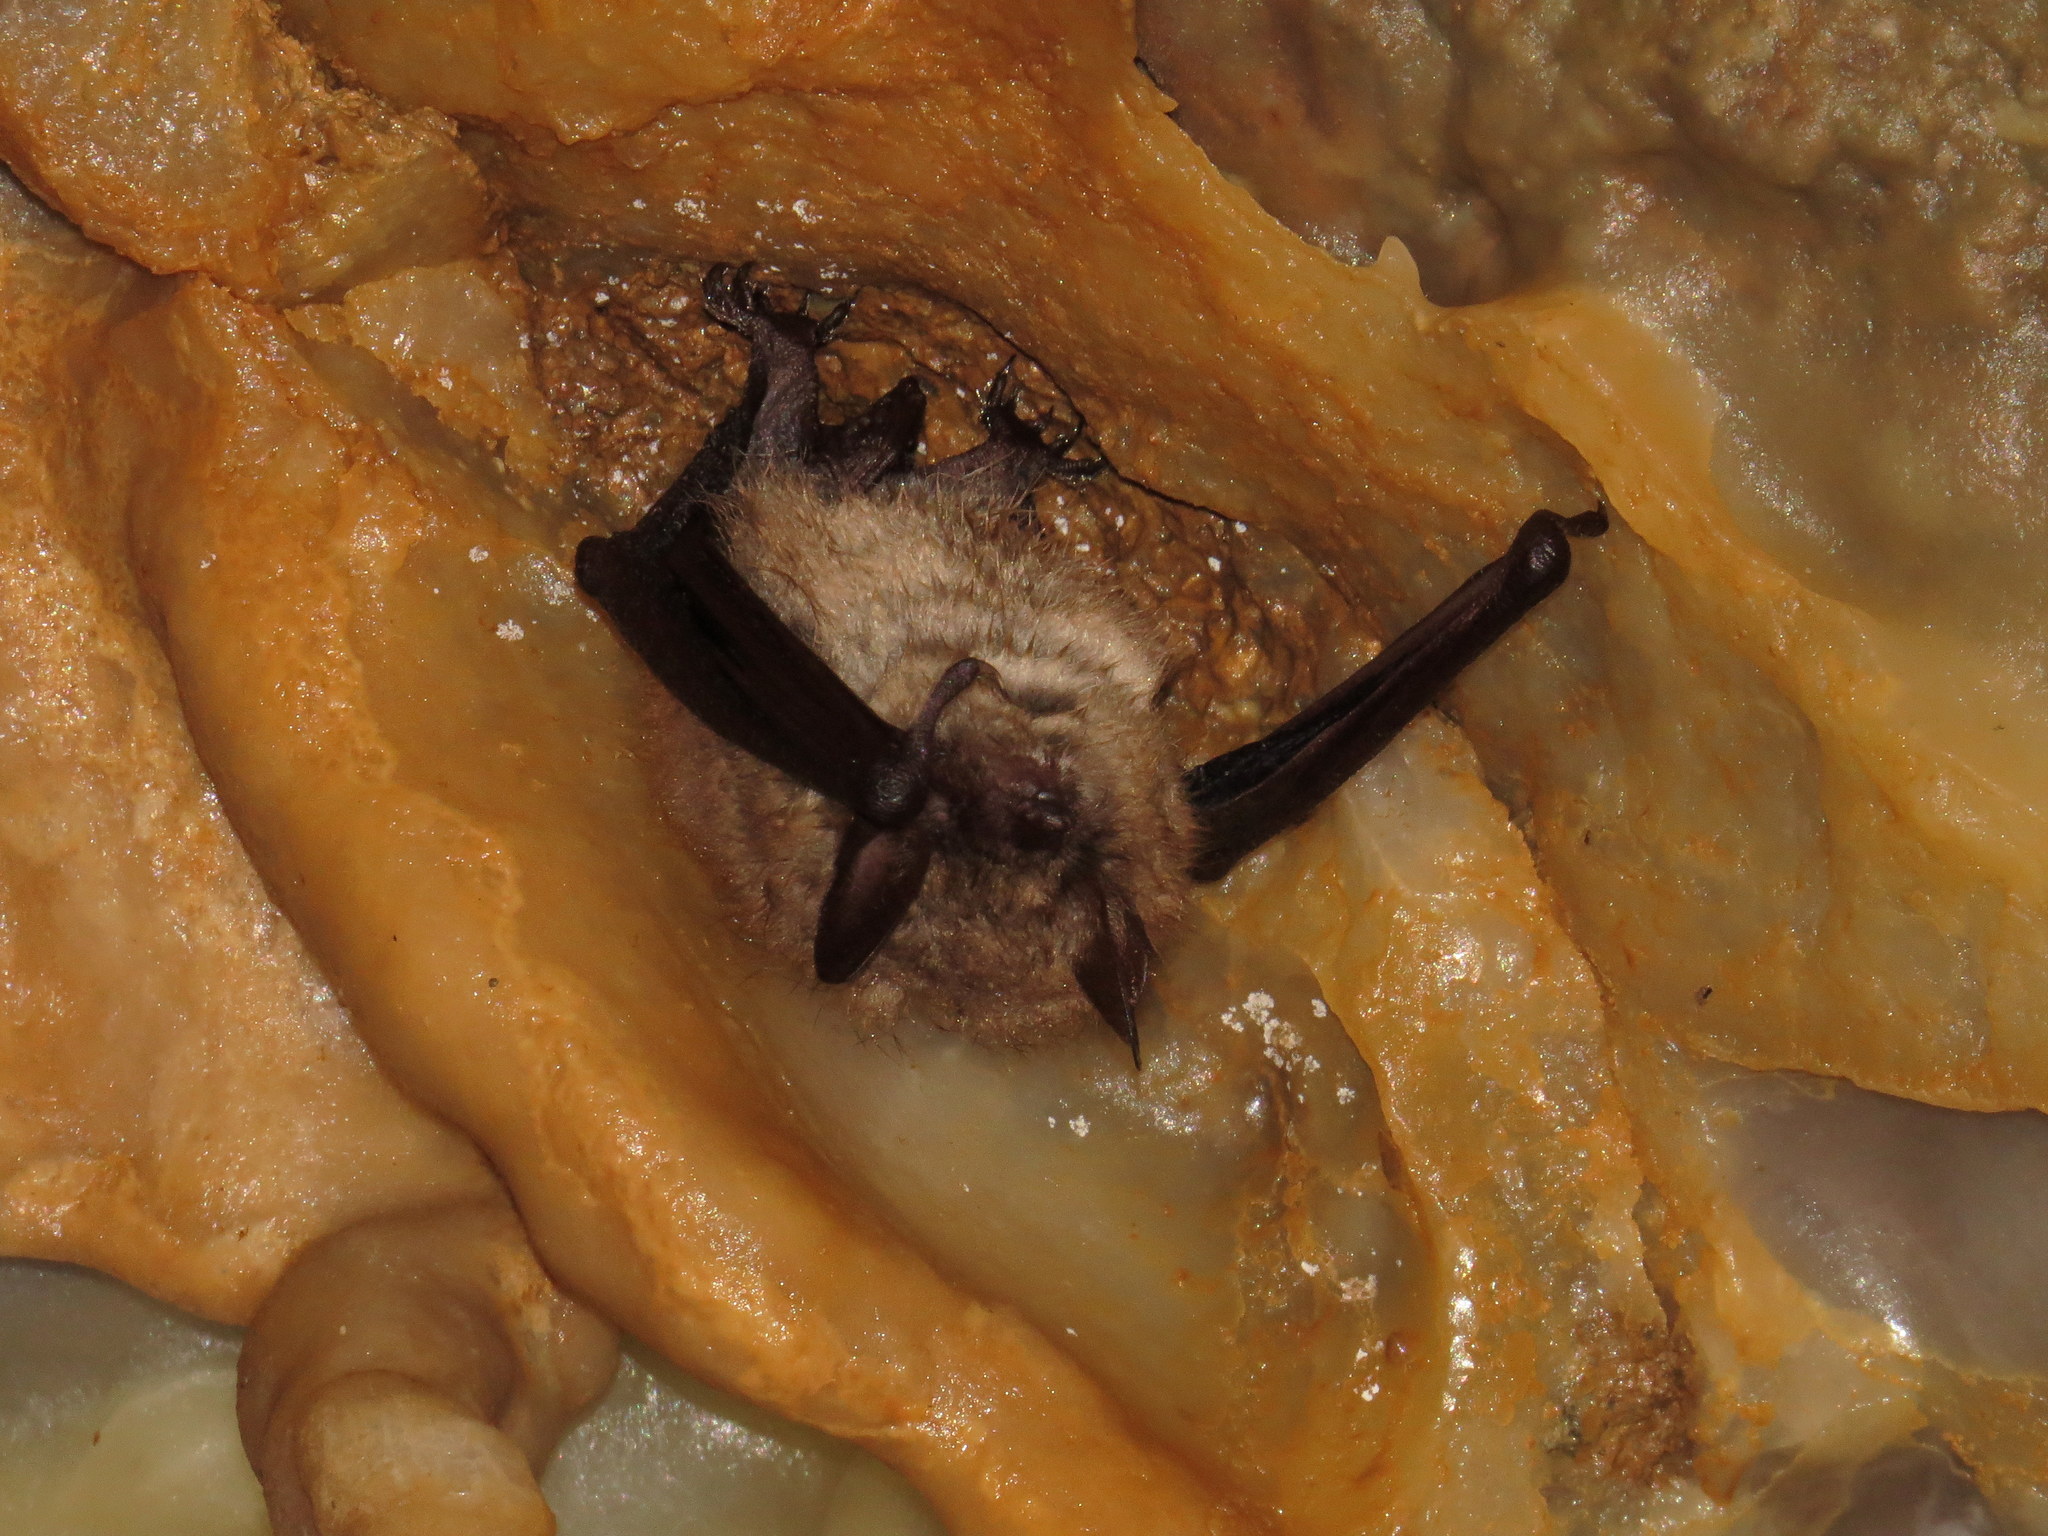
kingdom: Animalia
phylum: Chordata
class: Mammalia
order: Chiroptera
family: Vespertilionidae
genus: Myotis
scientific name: Myotis emarginatus
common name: Geoffroy's bat
